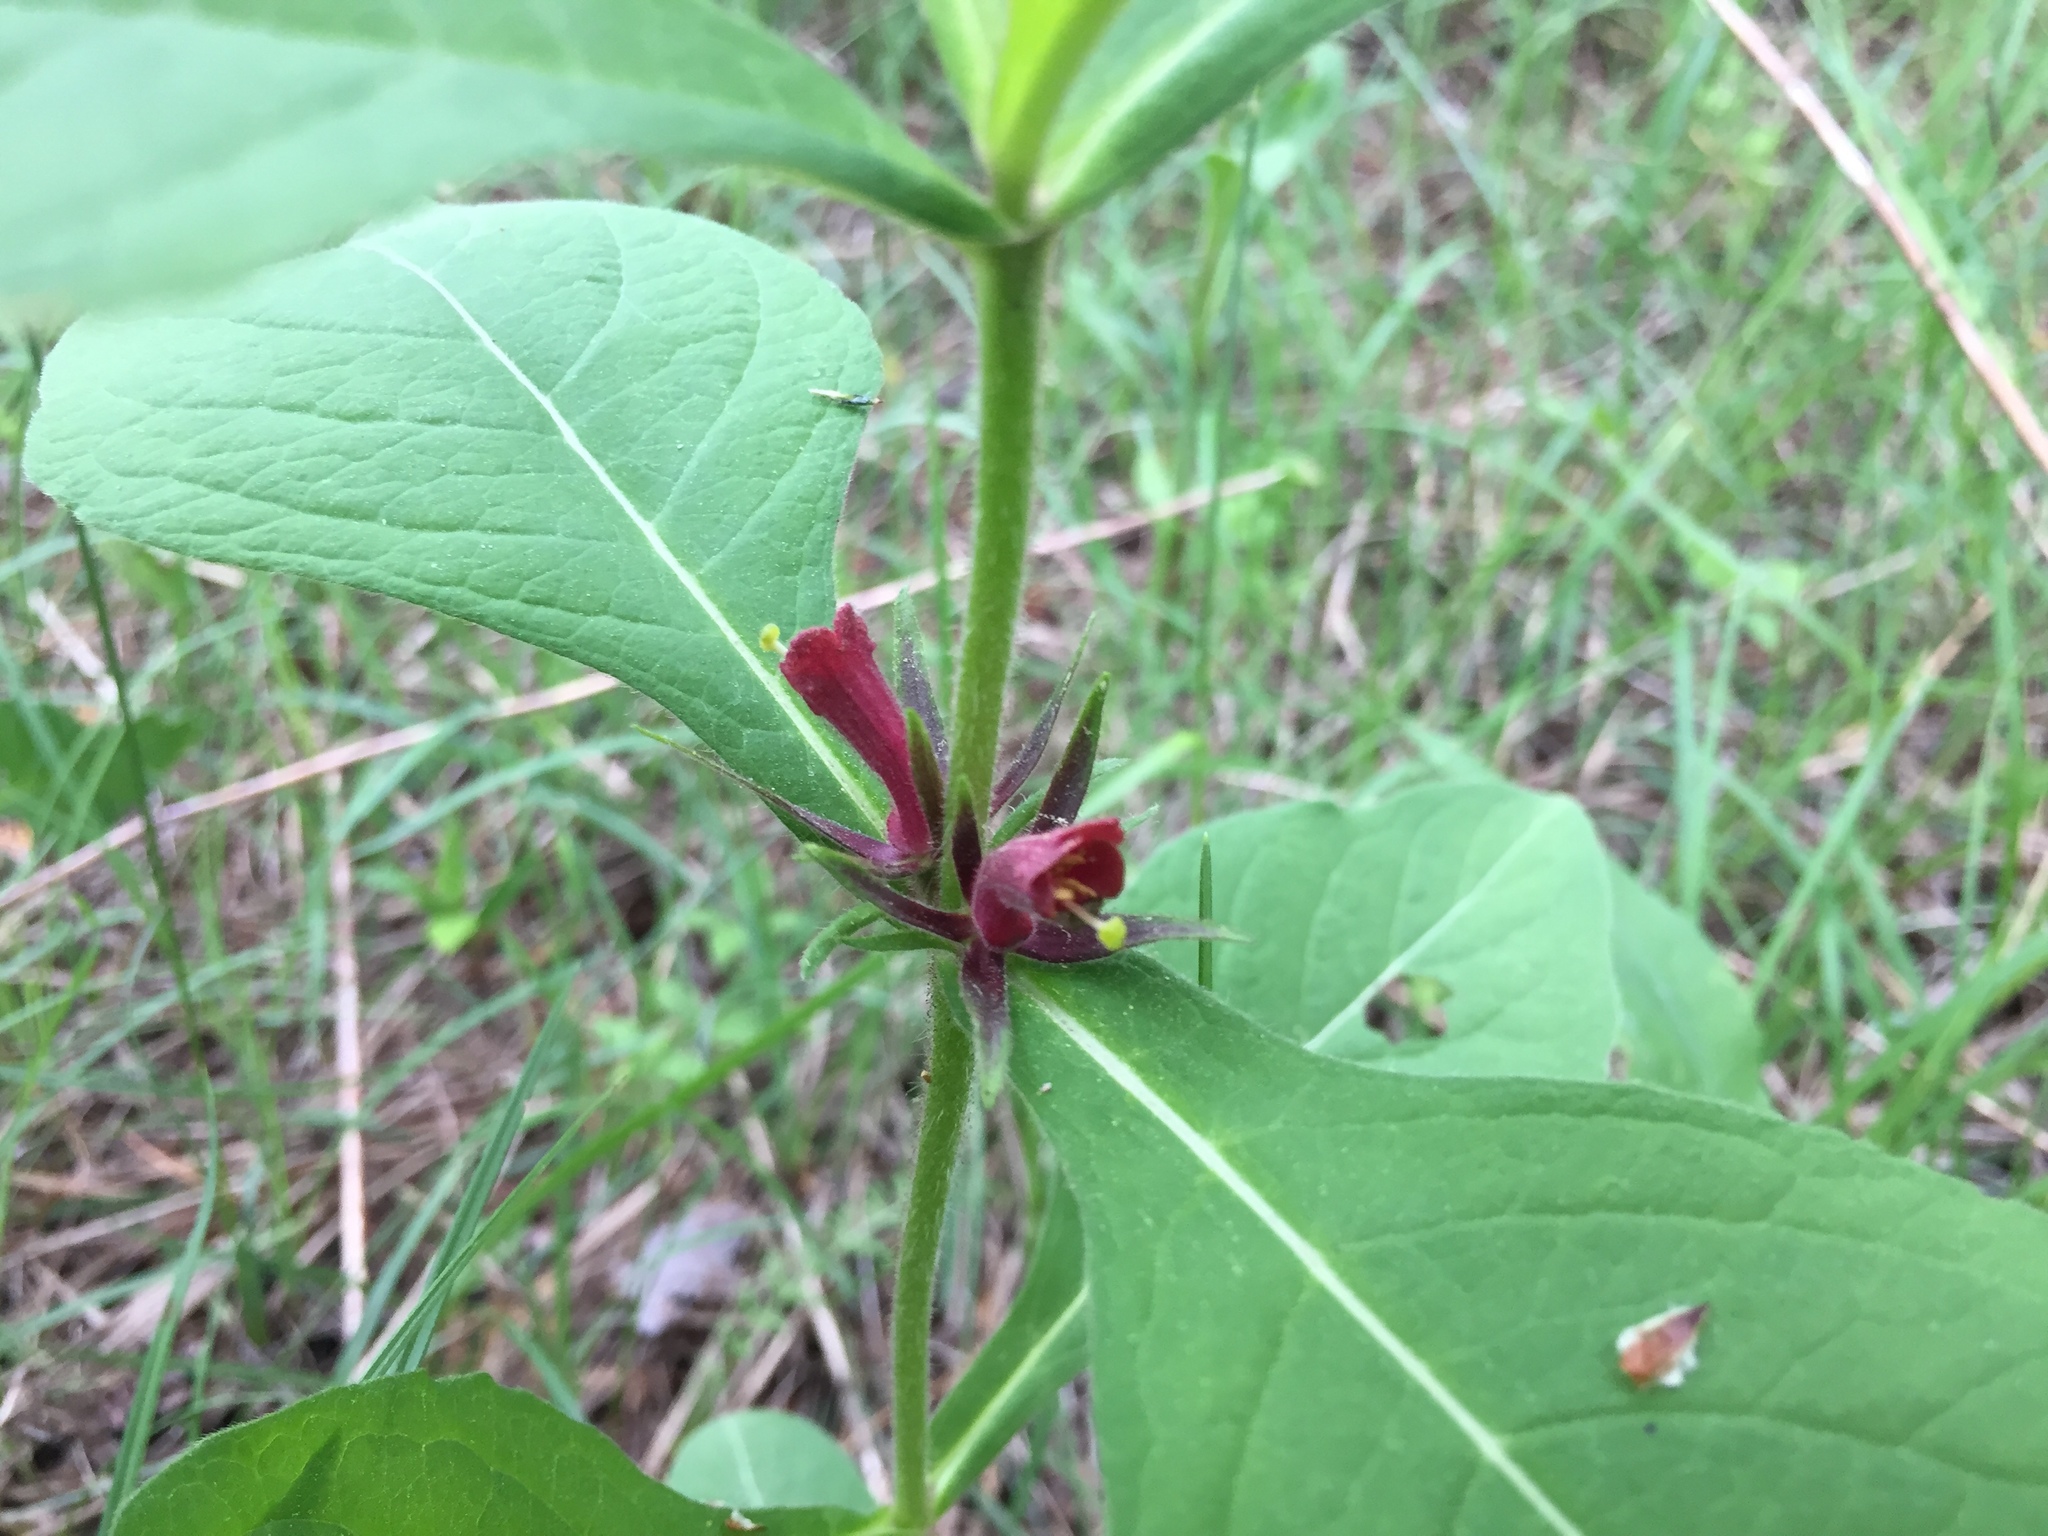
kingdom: Plantae
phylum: Tracheophyta
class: Magnoliopsida
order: Dipsacales
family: Caprifoliaceae
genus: Triosteum
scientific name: Triosteum aurantiacum
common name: Coffee tinker's-weed
